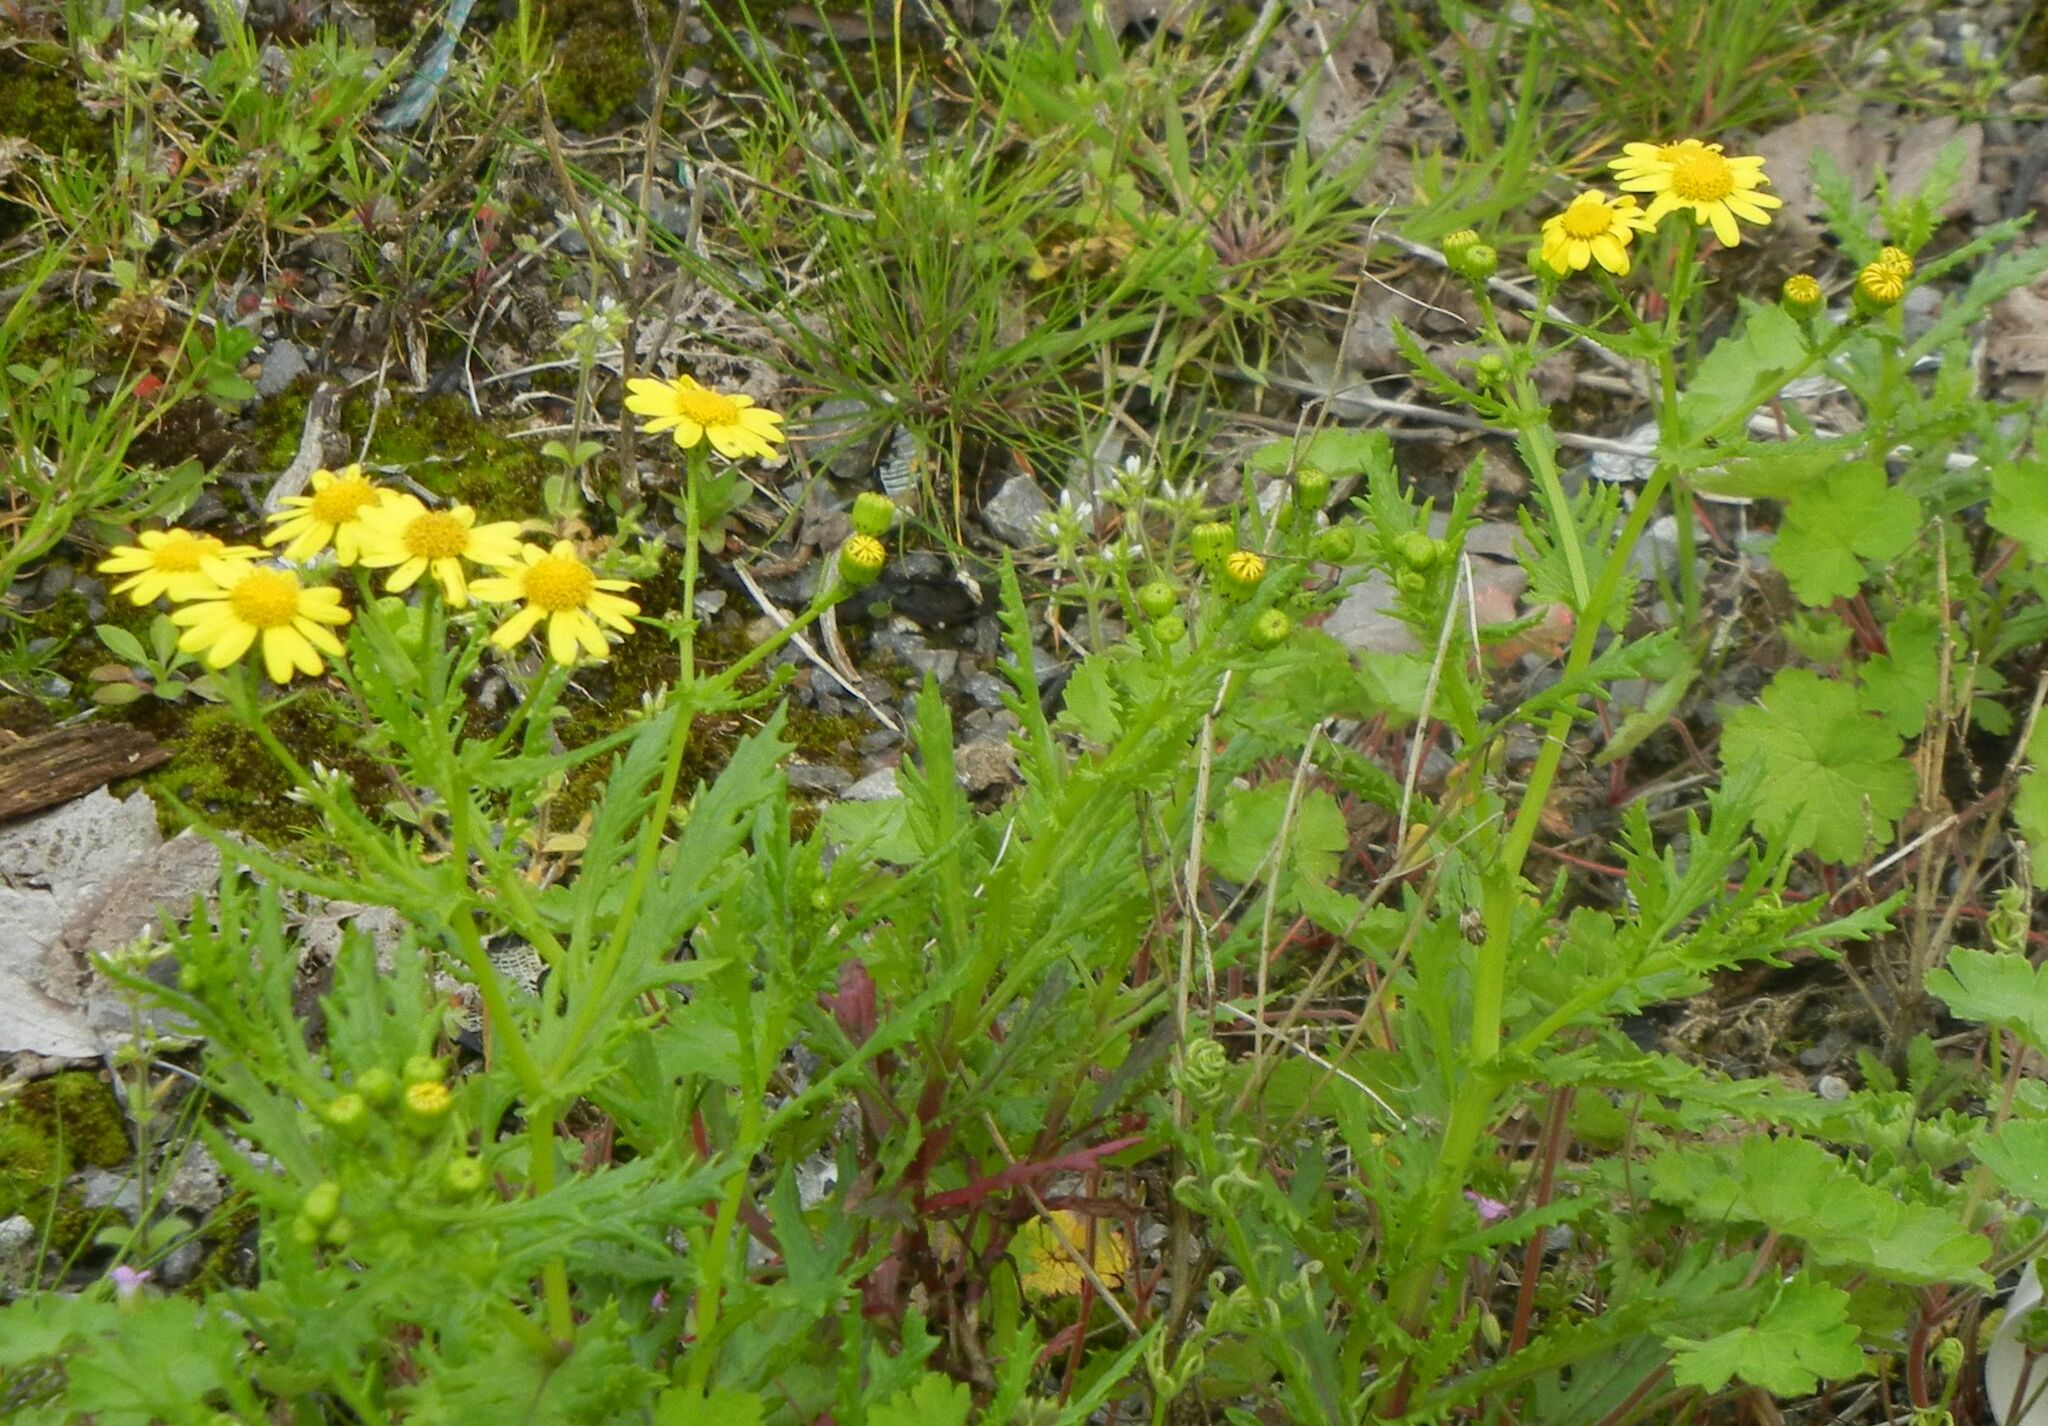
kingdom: Plantae
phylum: Tracheophyta
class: Magnoliopsida
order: Asterales
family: Asteraceae
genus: Senecio
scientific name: Senecio squalidus
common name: Oxford ragwort
